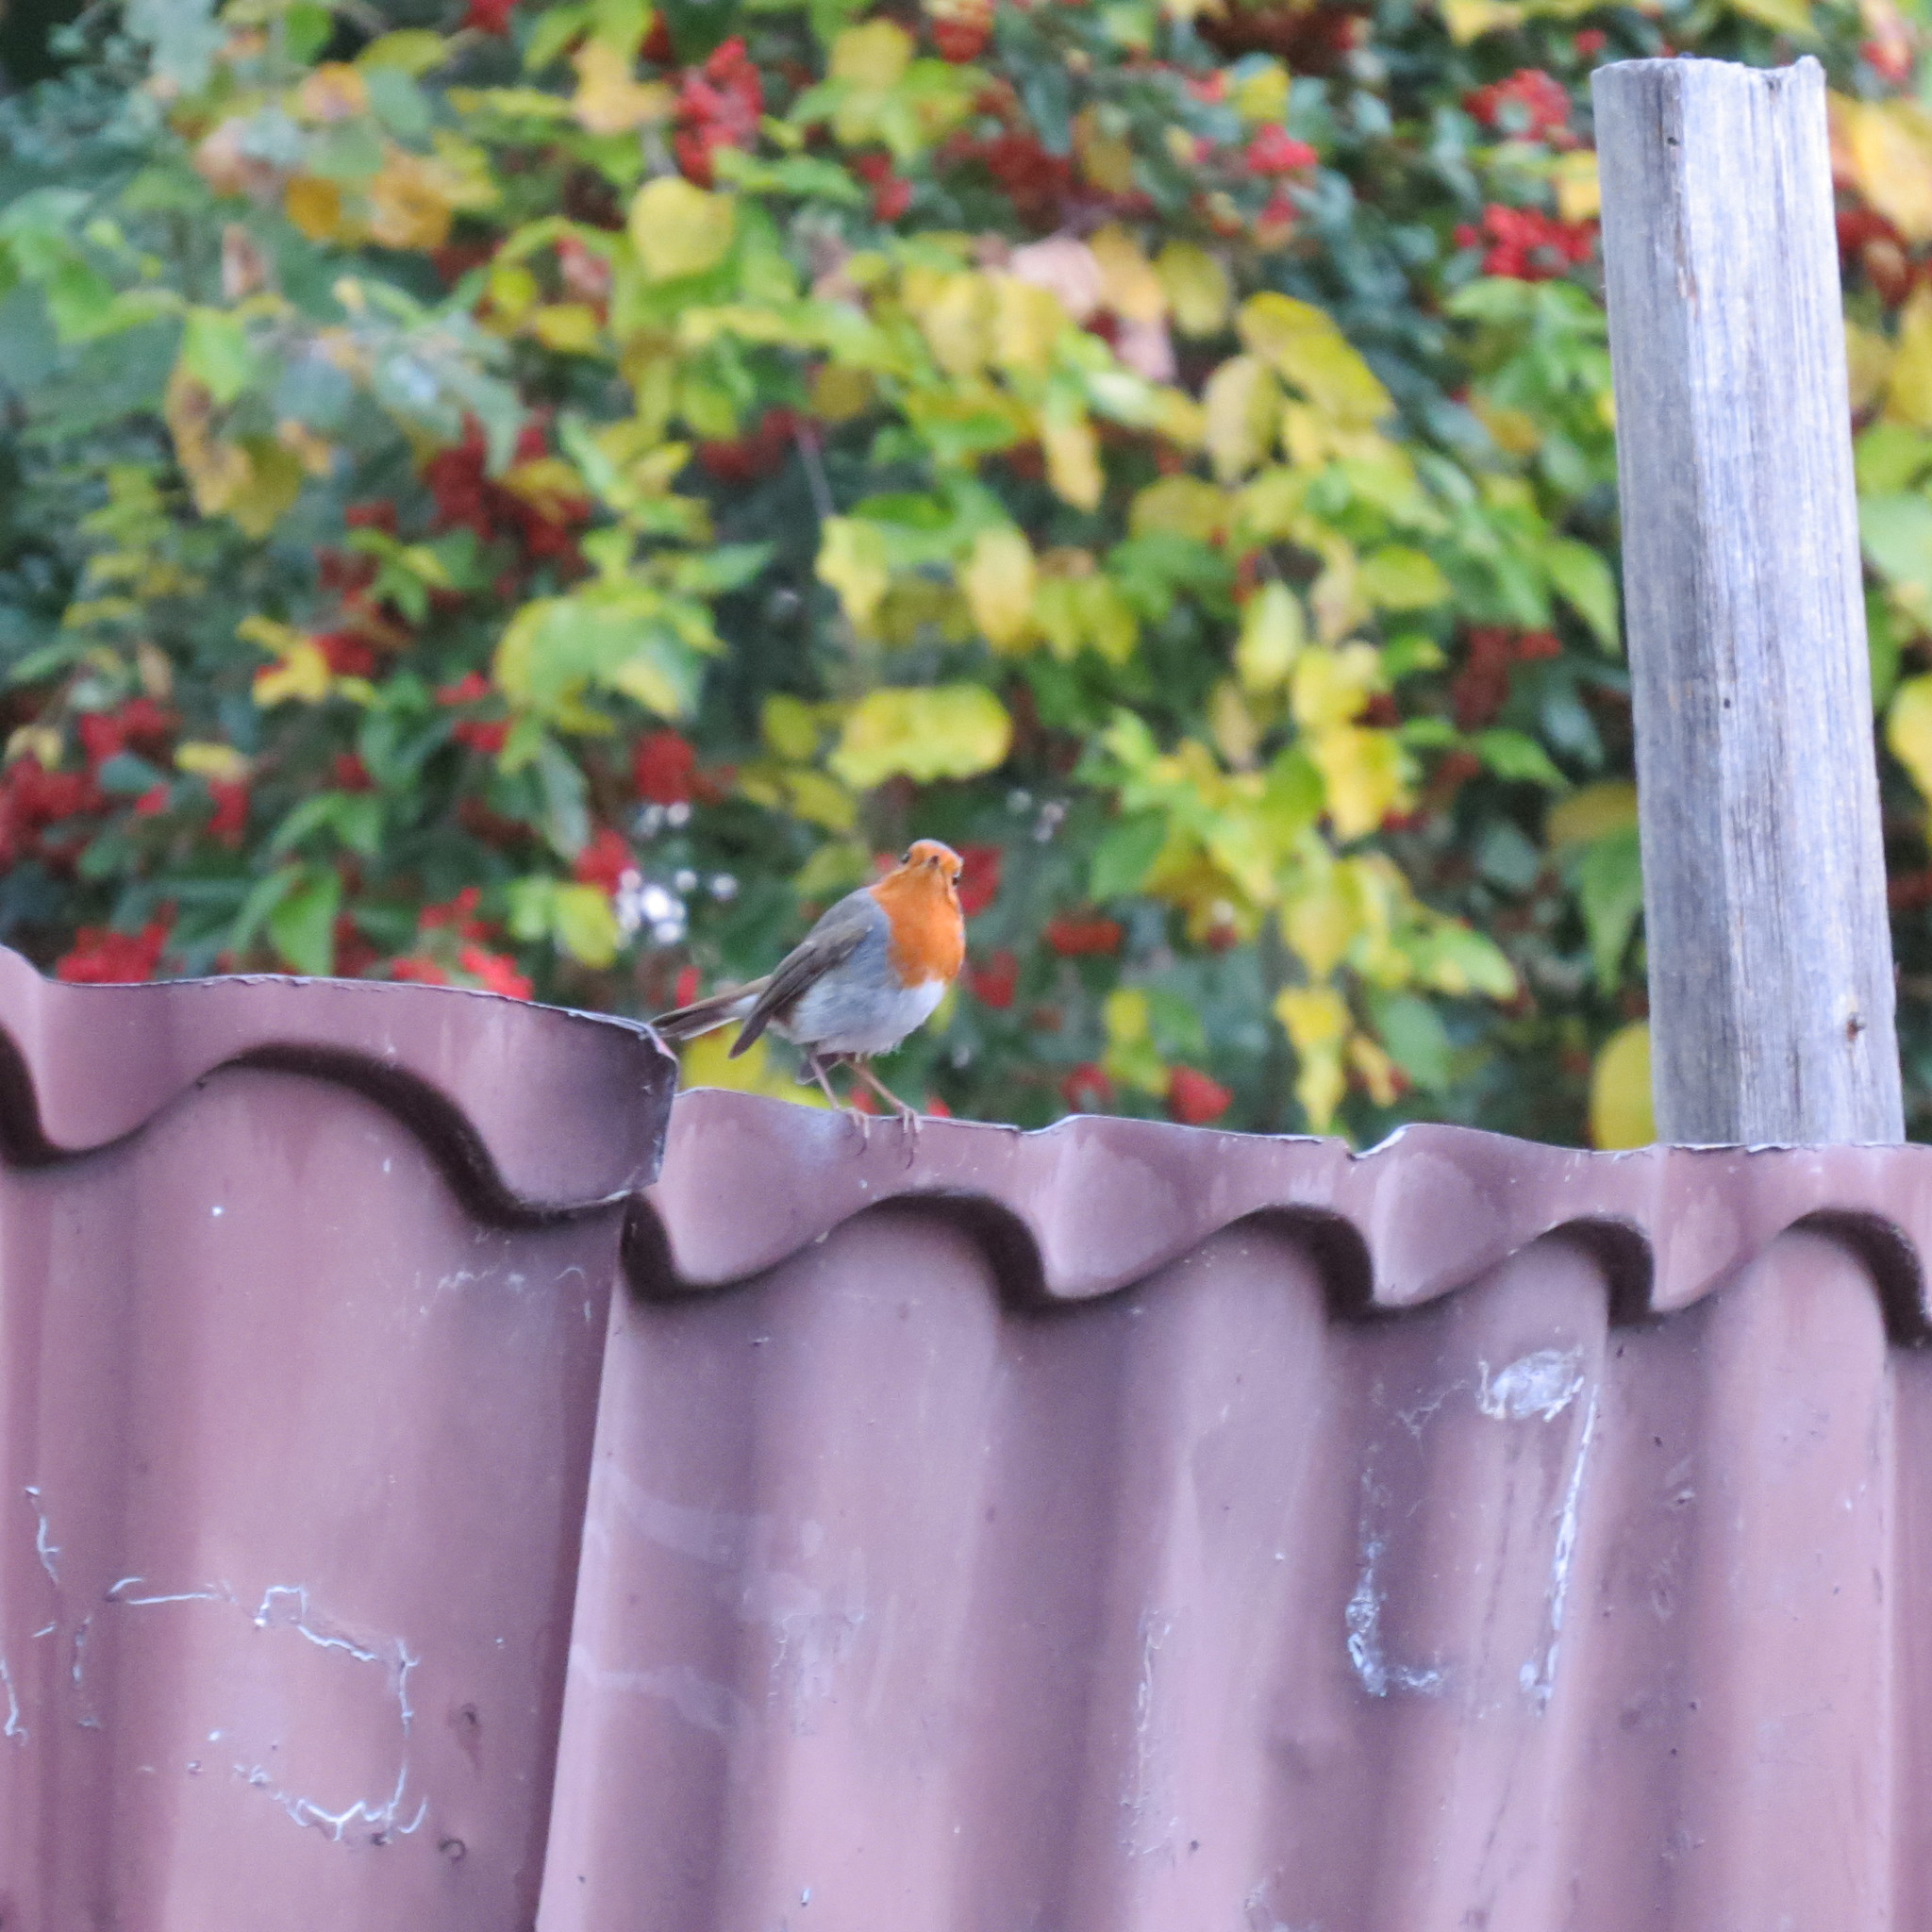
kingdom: Animalia
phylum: Chordata
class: Aves
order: Passeriformes
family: Muscicapidae
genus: Erithacus
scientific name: Erithacus rubecula
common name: European robin
